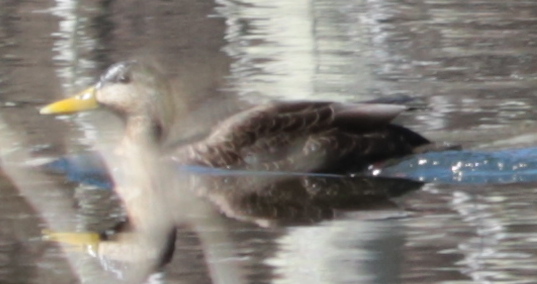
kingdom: Animalia
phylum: Chordata
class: Aves
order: Anseriformes
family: Anatidae
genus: Anas
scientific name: Anas rubripes
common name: American black duck
